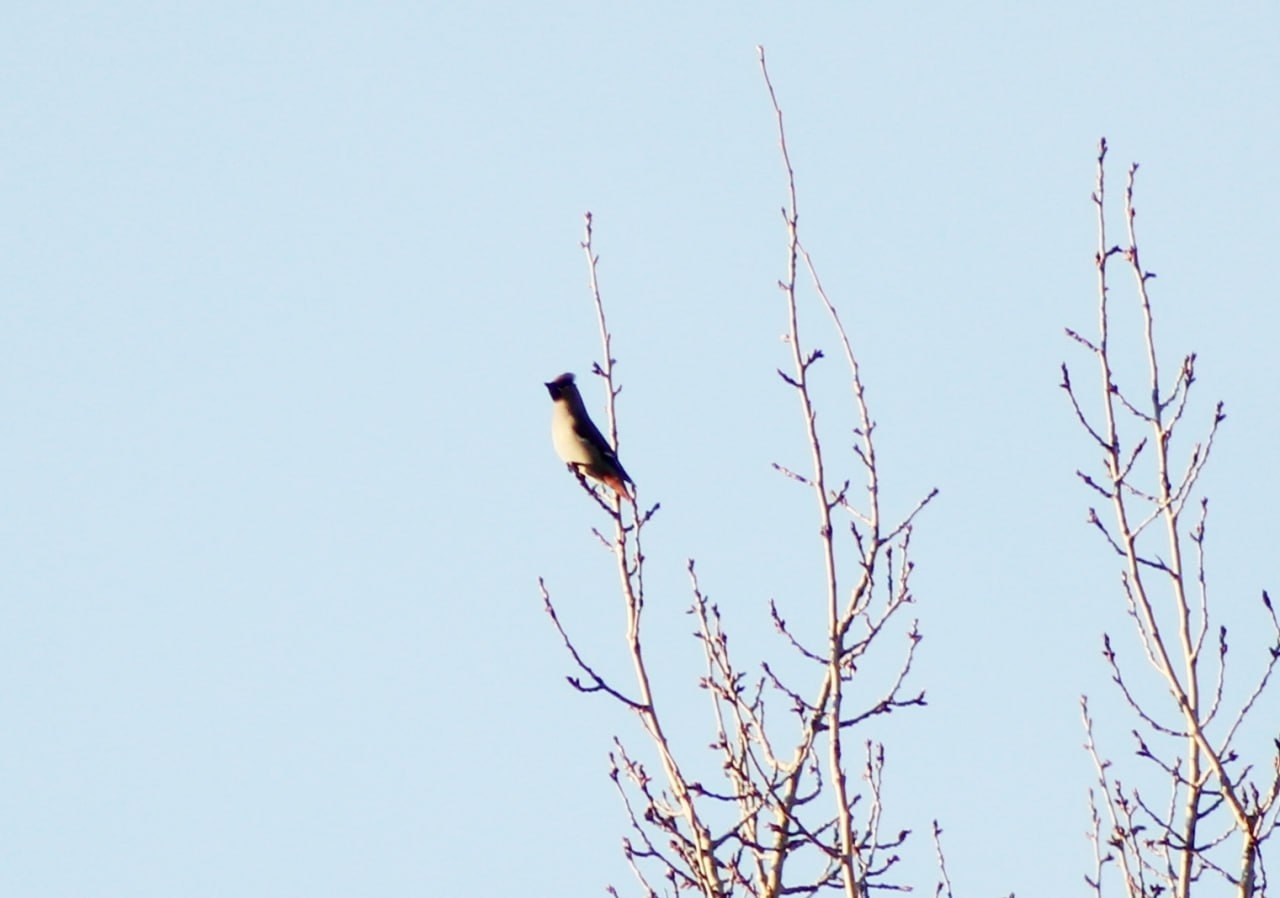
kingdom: Animalia
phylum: Chordata
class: Aves
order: Passeriformes
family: Bombycillidae
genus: Bombycilla
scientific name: Bombycilla garrulus
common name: Bohemian waxwing
